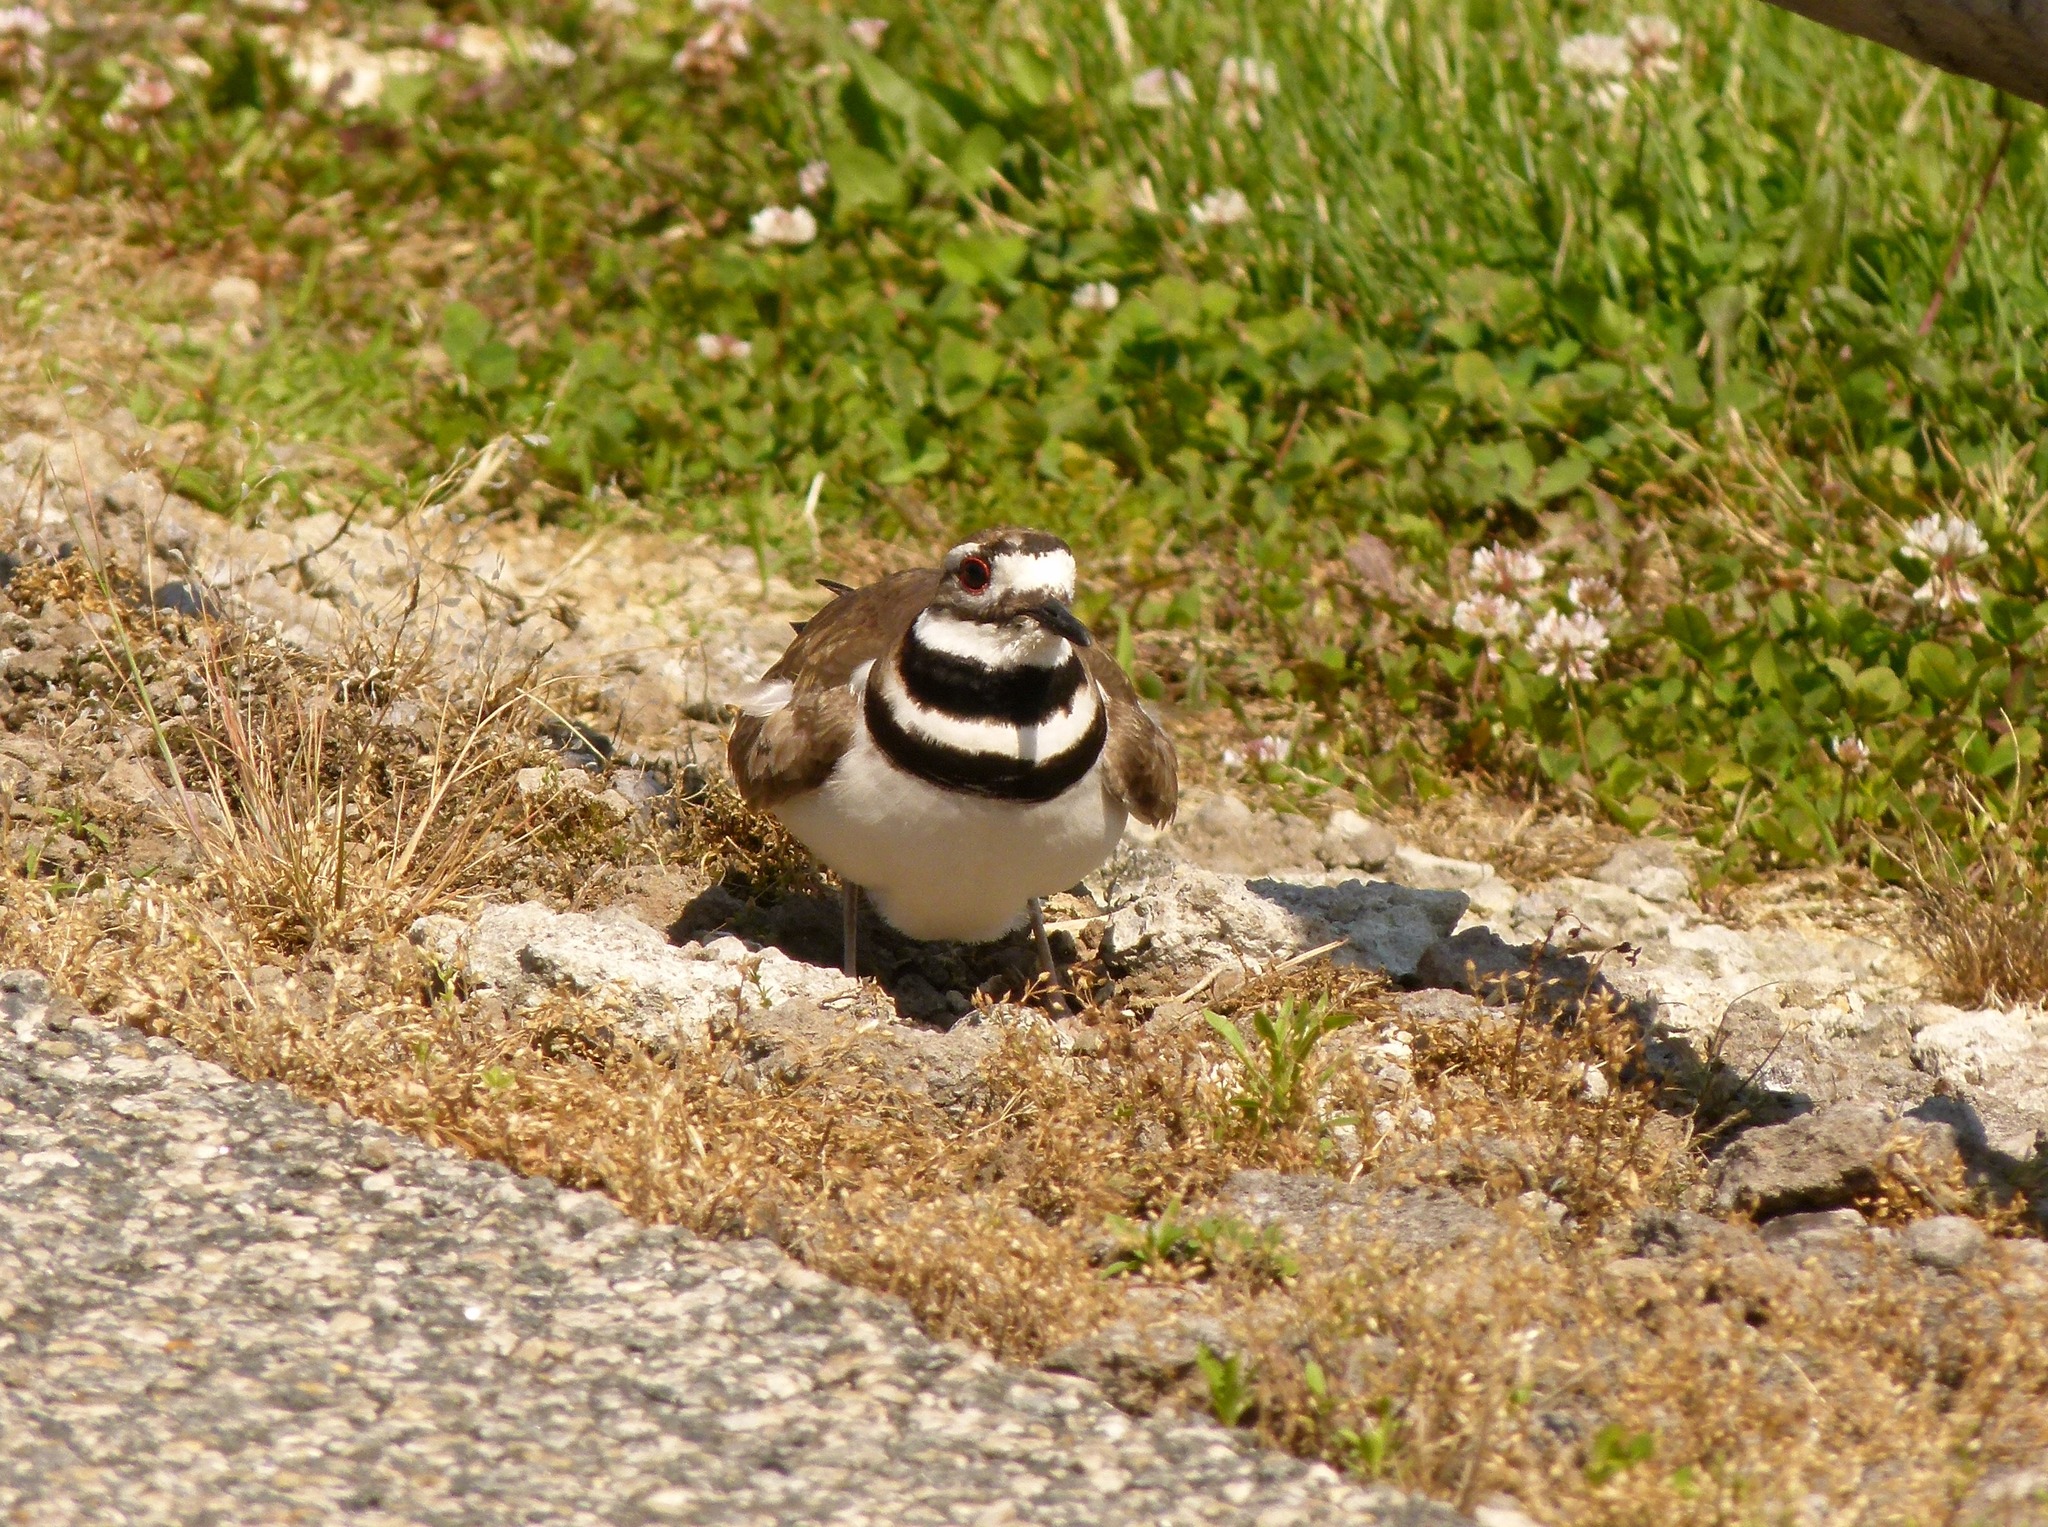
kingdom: Animalia
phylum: Chordata
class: Aves
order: Charadriiformes
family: Charadriidae
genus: Charadrius
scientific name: Charadrius vociferus
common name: Killdeer
